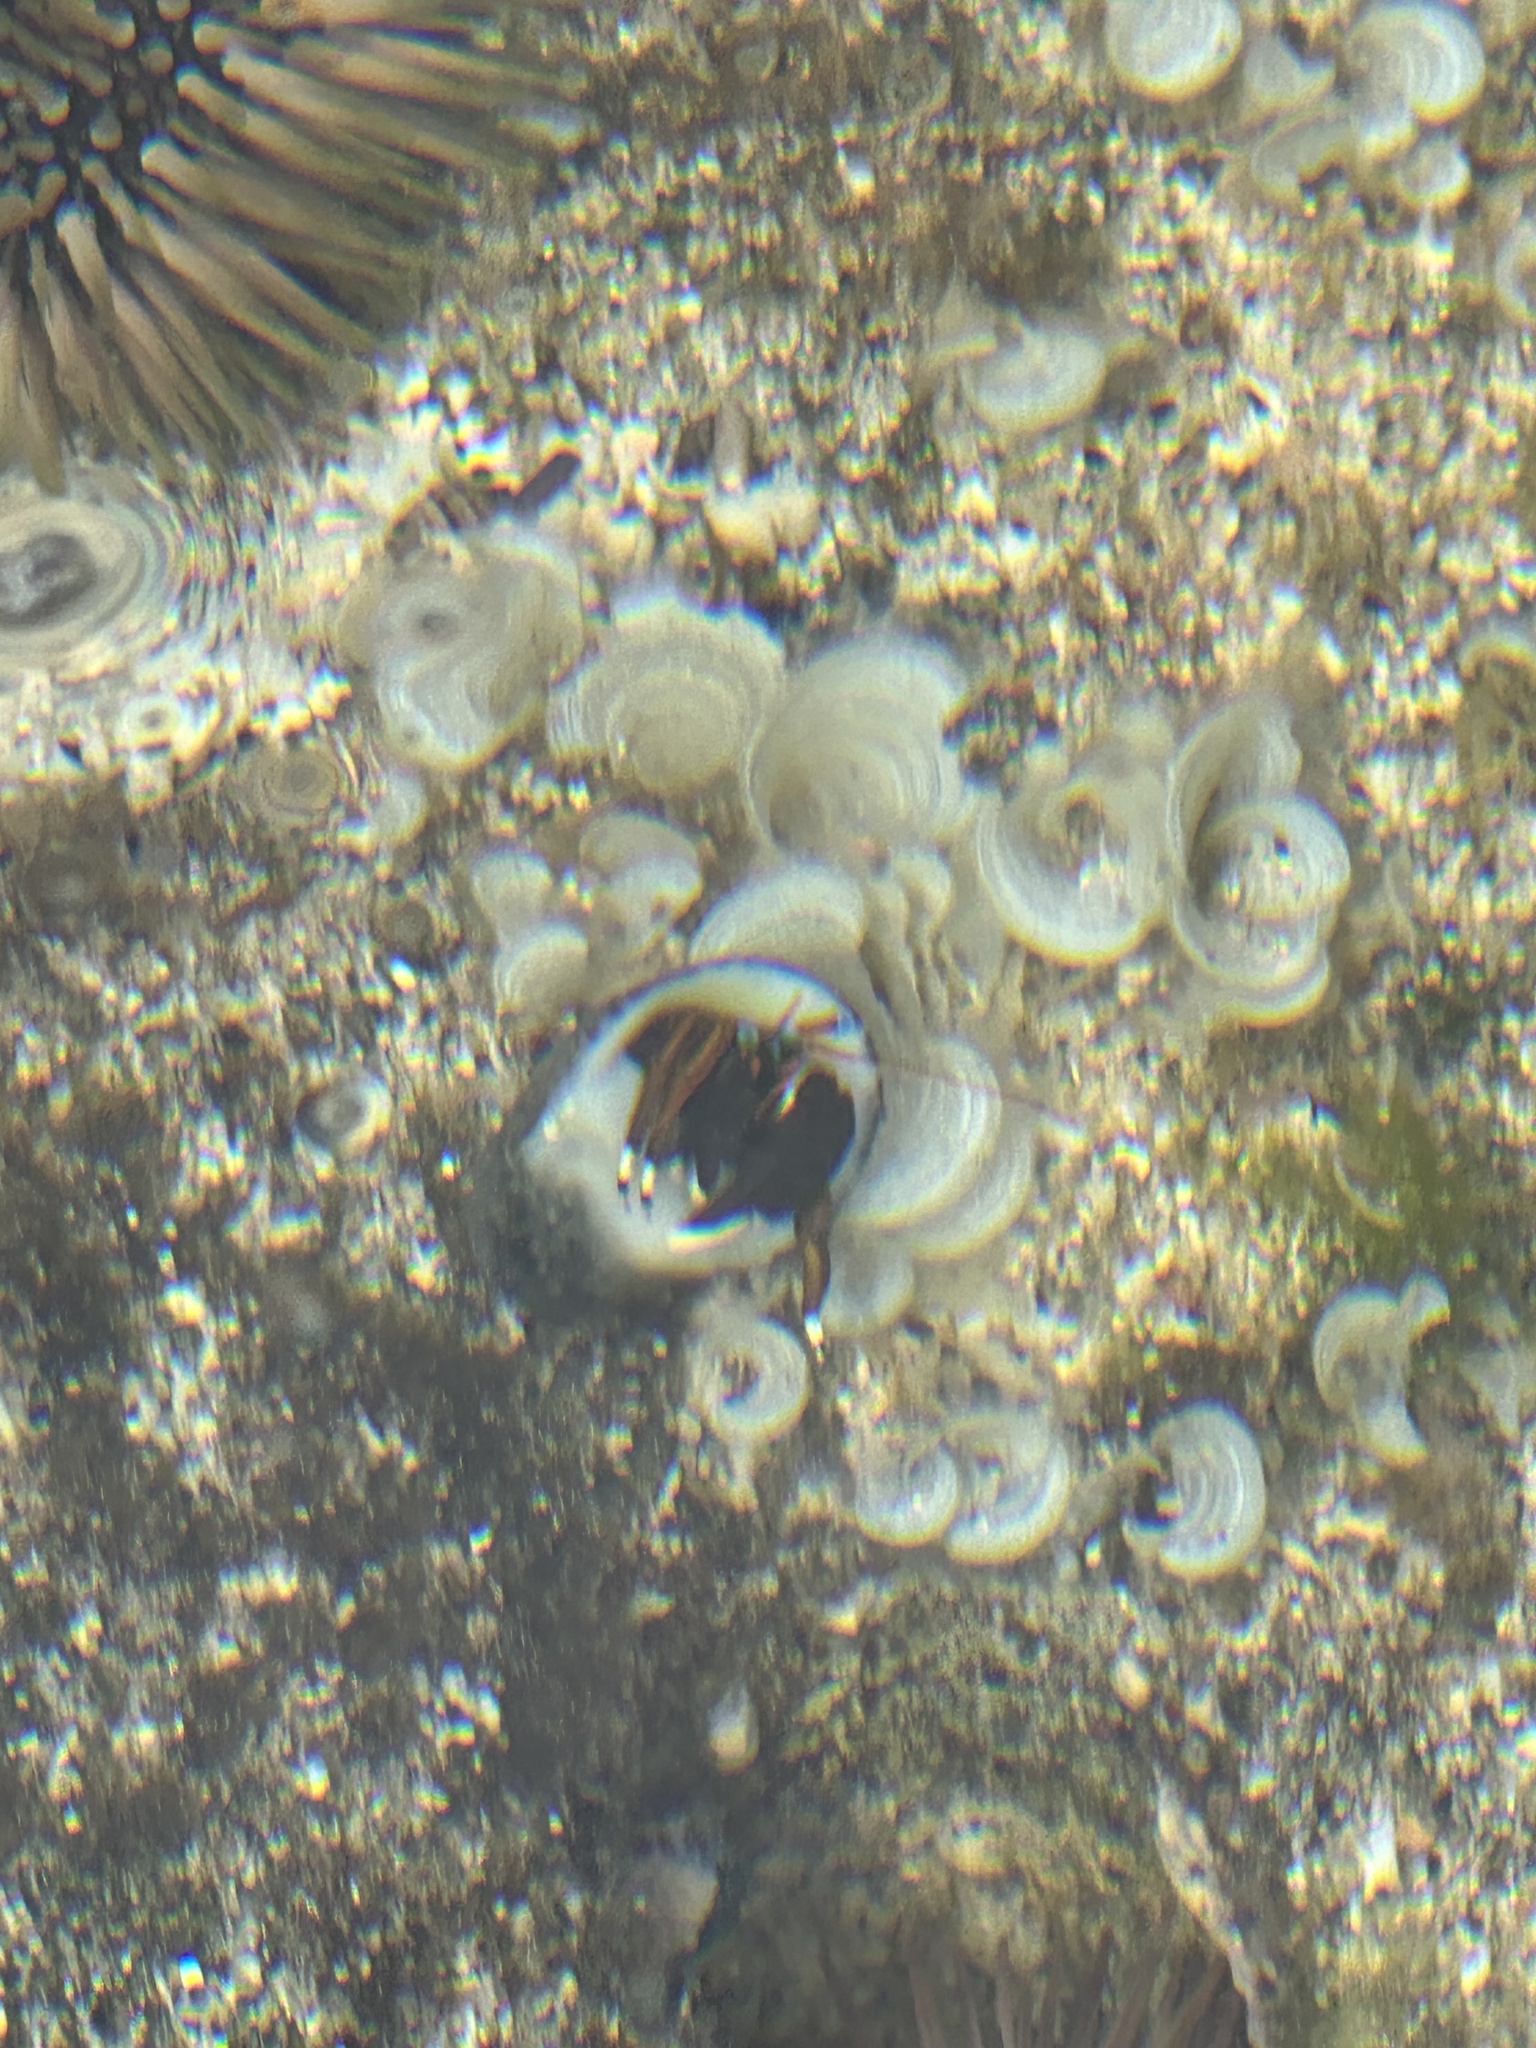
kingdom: Animalia
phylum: Arthropoda
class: Malacostraca
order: Decapoda
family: Diogenidae
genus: Calcinus
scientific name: Calcinus laevimanus
